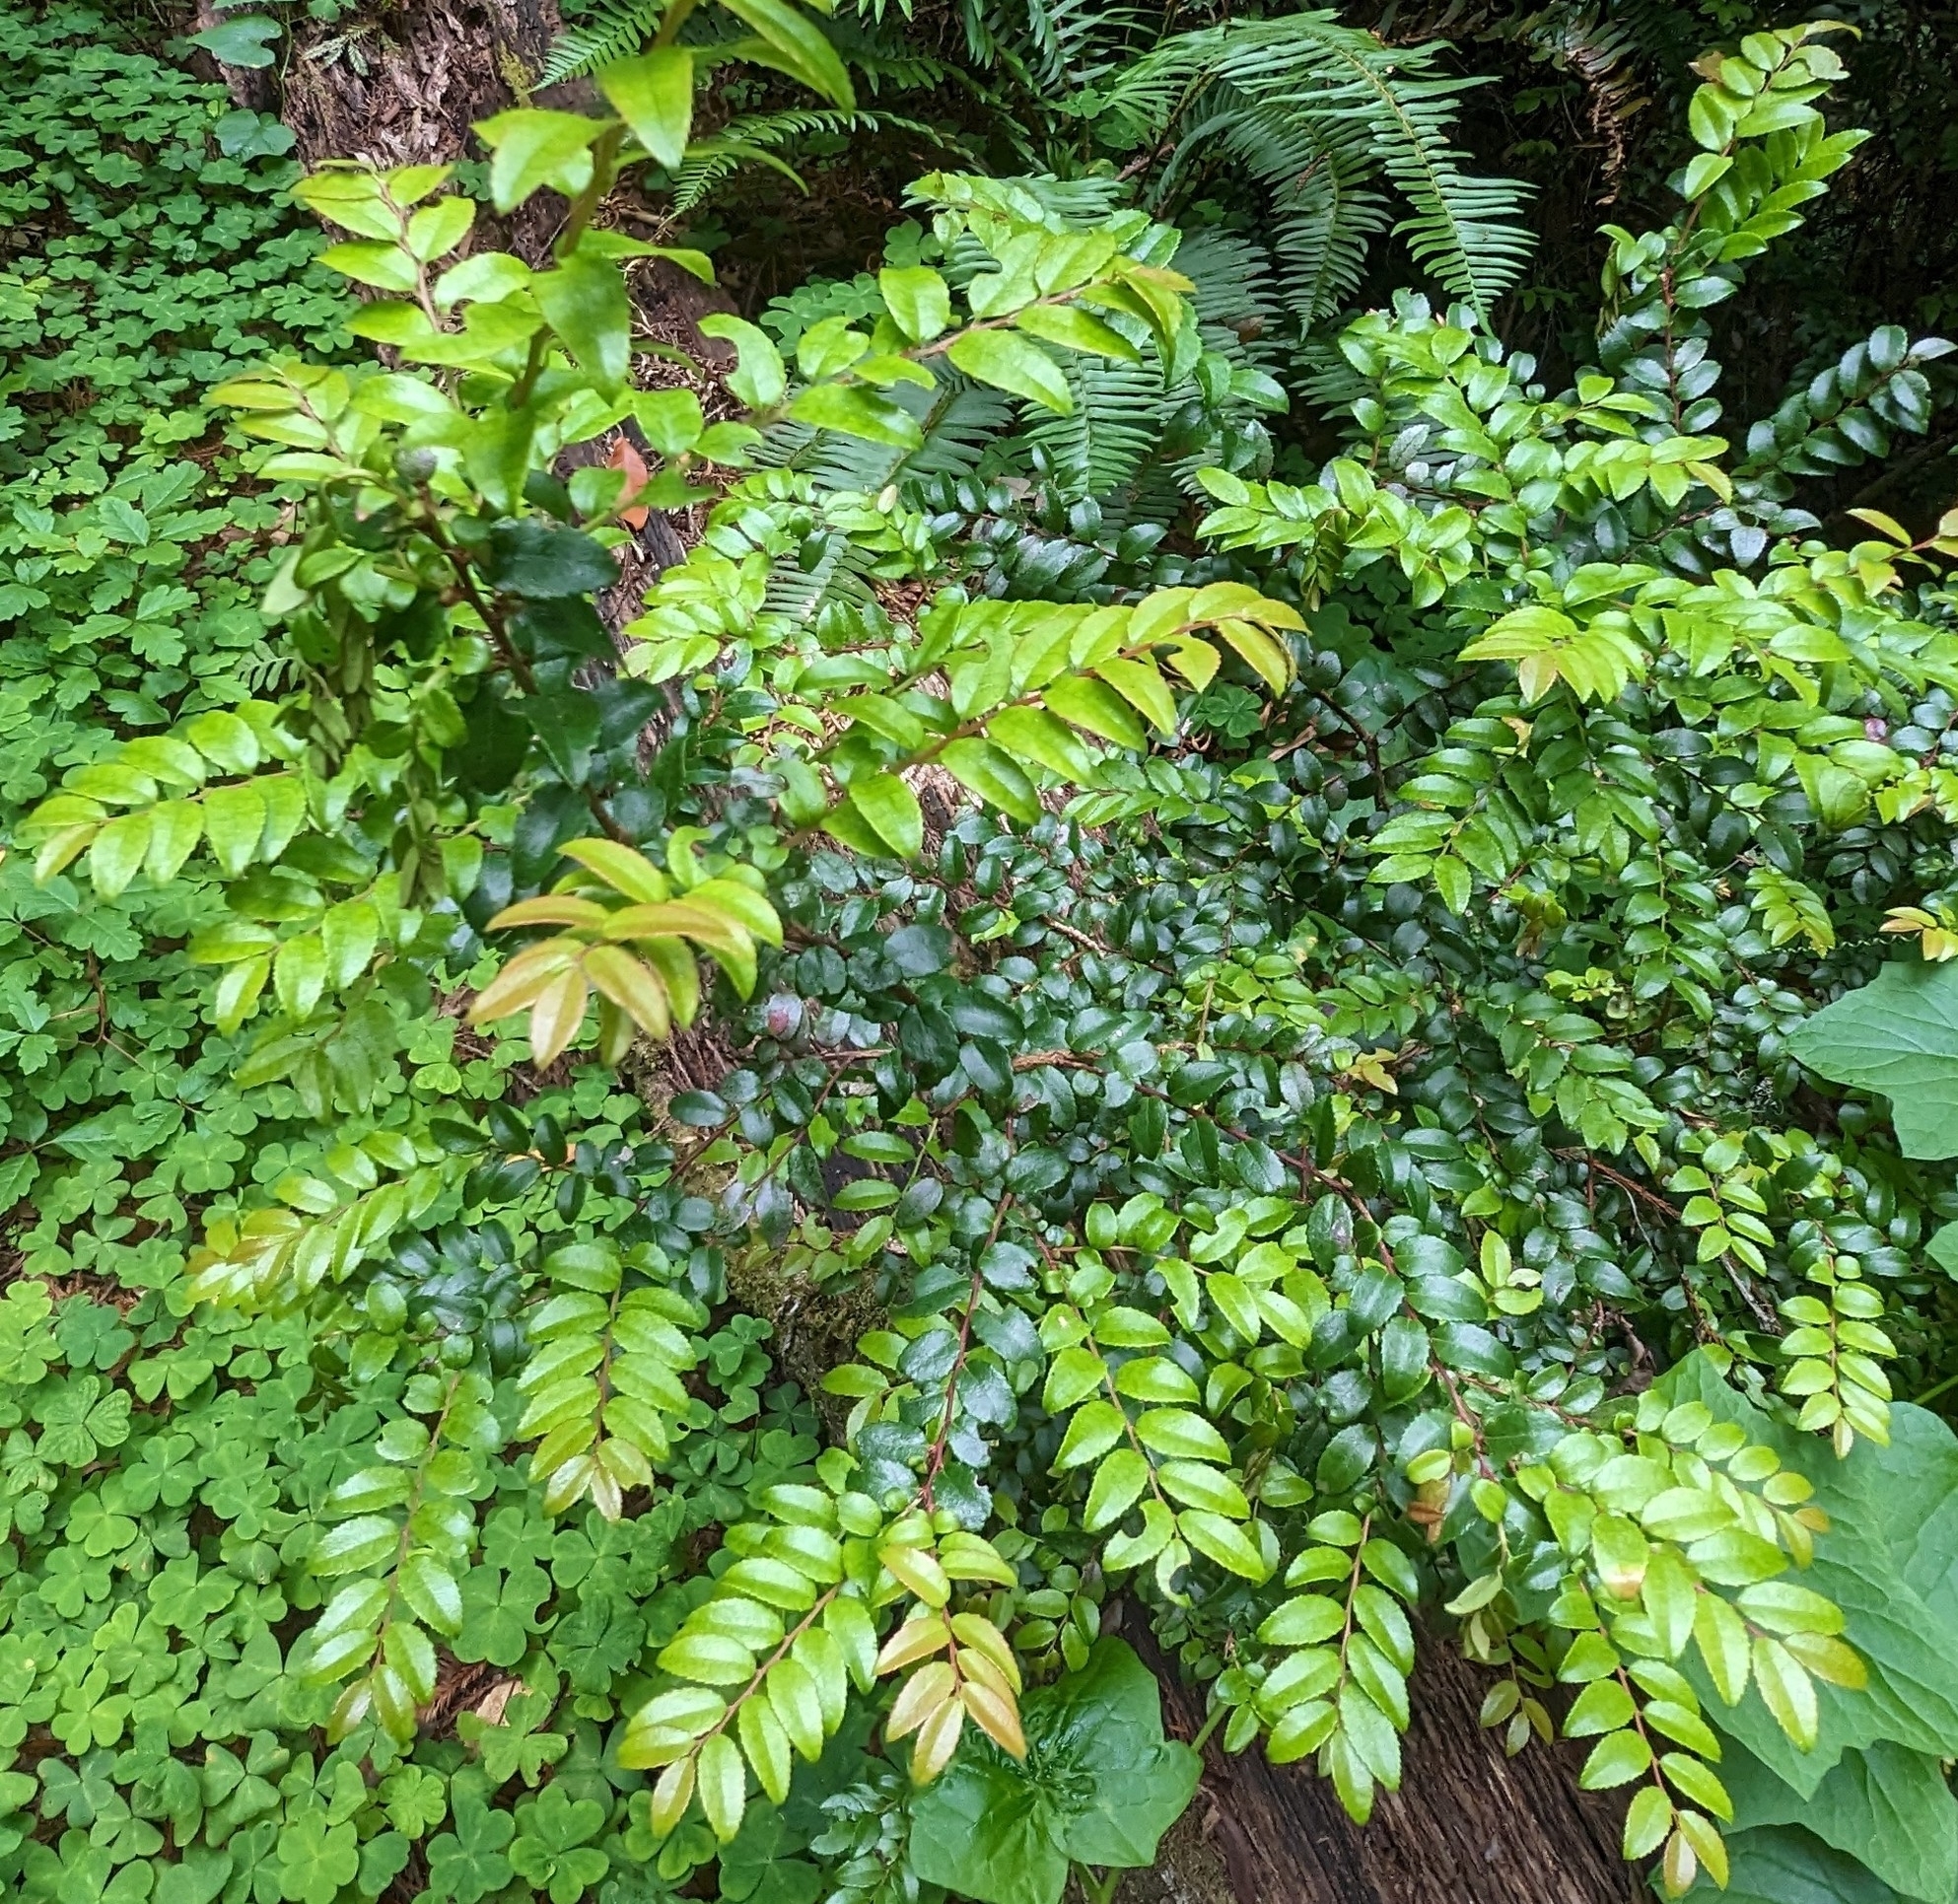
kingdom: Plantae
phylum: Tracheophyta
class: Magnoliopsida
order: Ericales
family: Ericaceae
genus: Vaccinium
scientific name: Vaccinium ovatum
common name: California-huckleberry
